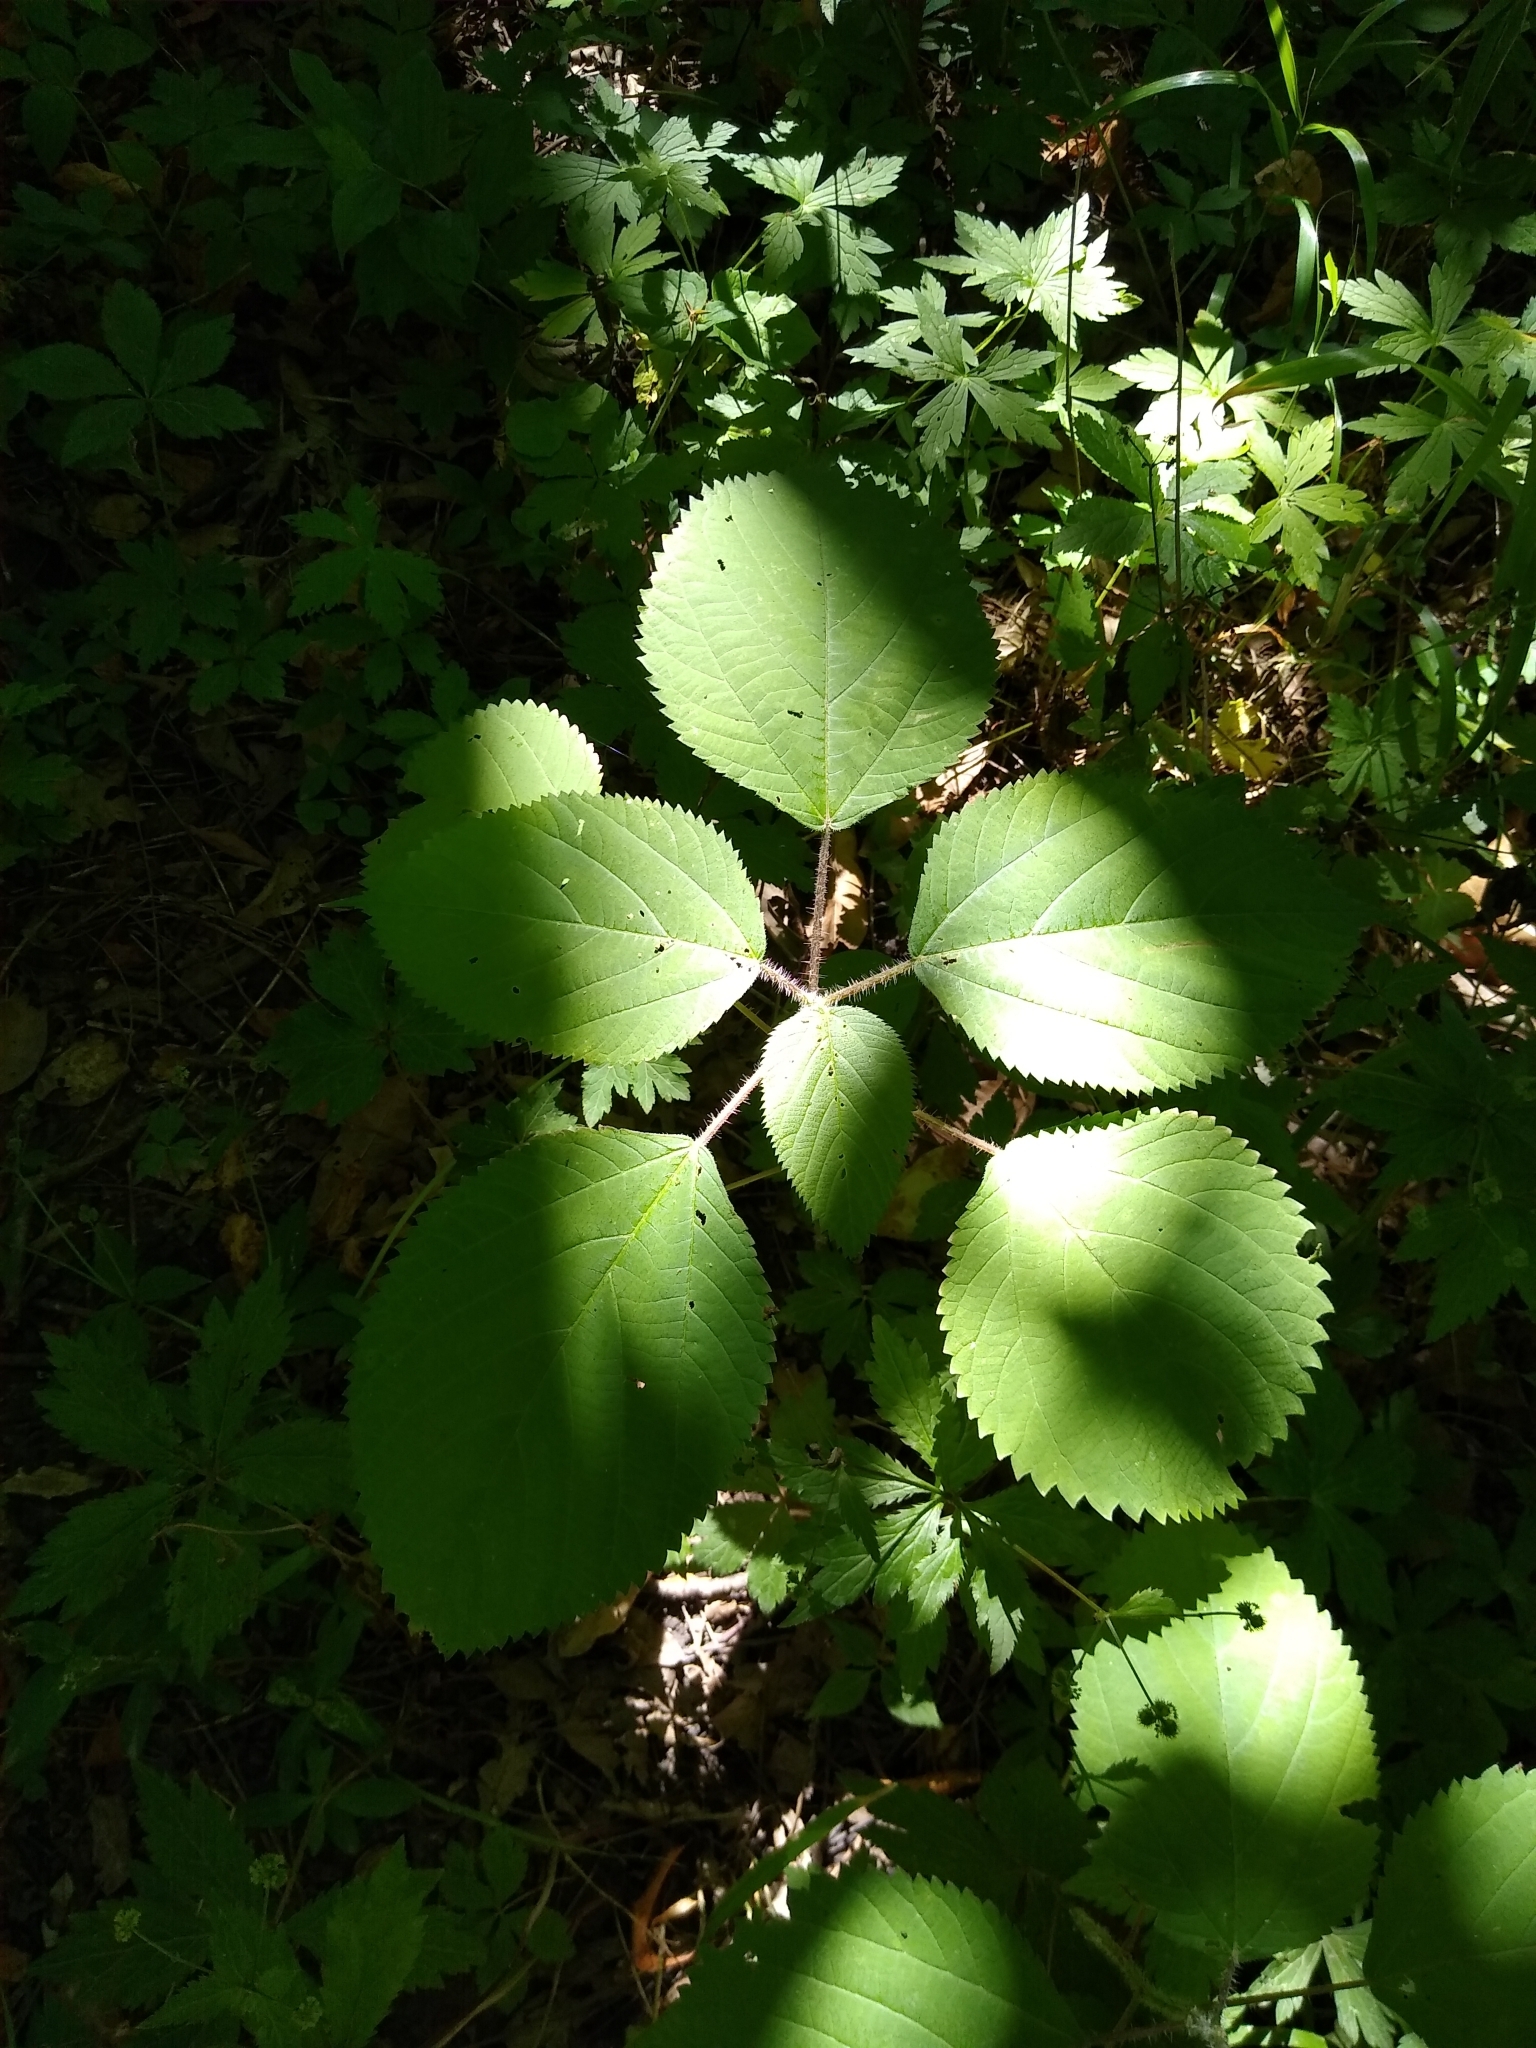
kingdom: Plantae
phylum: Tracheophyta
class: Magnoliopsida
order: Rosales
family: Urticaceae
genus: Laportea
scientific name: Laportea canadensis
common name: Canada nettle
